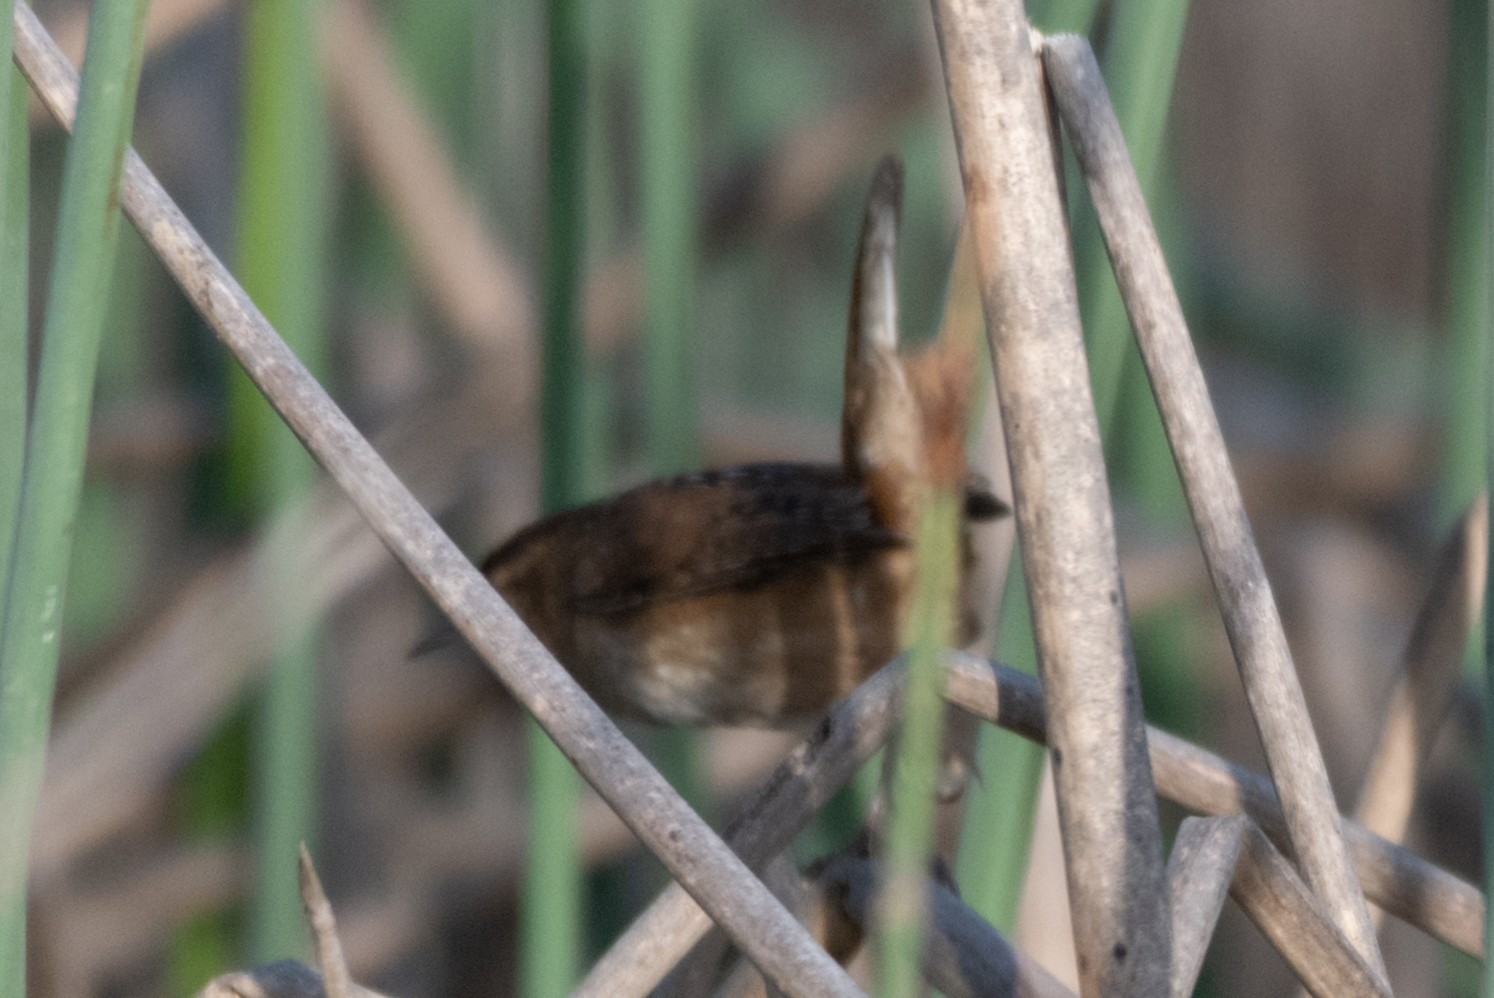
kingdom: Animalia
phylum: Chordata
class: Aves
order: Passeriformes
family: Troglodytidae
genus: Cistothorus
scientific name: Cistothorus palustris
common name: Marsh wren
